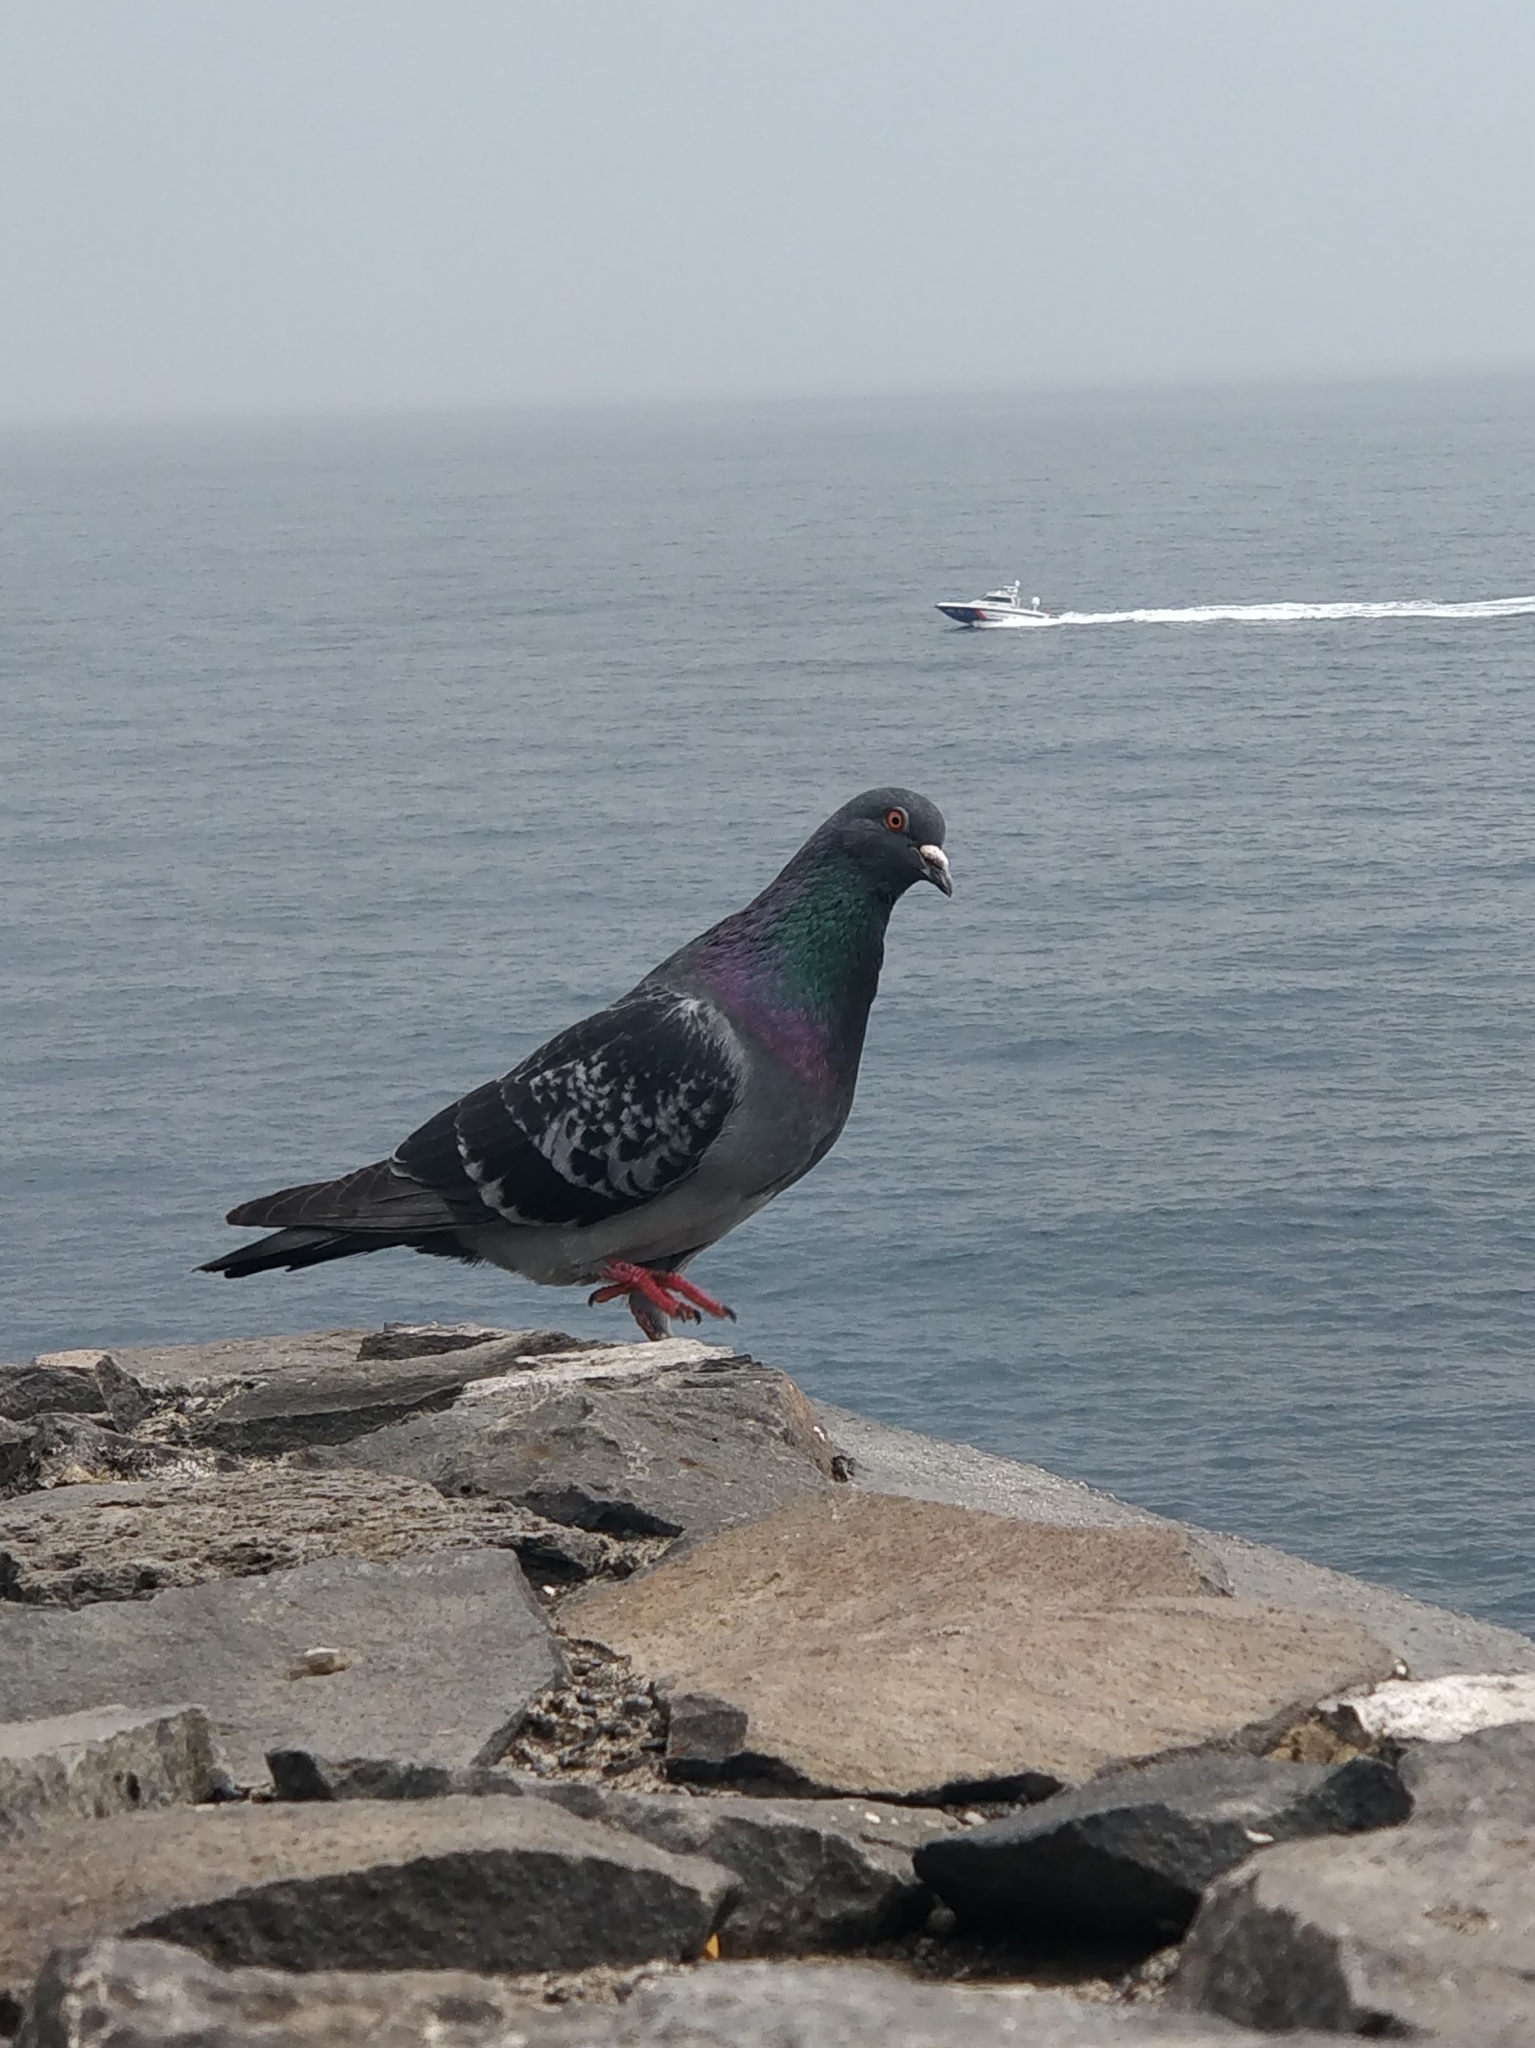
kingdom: Animalia
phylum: Chordata
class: Aves
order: Columbiformes
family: Columbidae
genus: Columba
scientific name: Columba livia
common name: Rock pigeon
